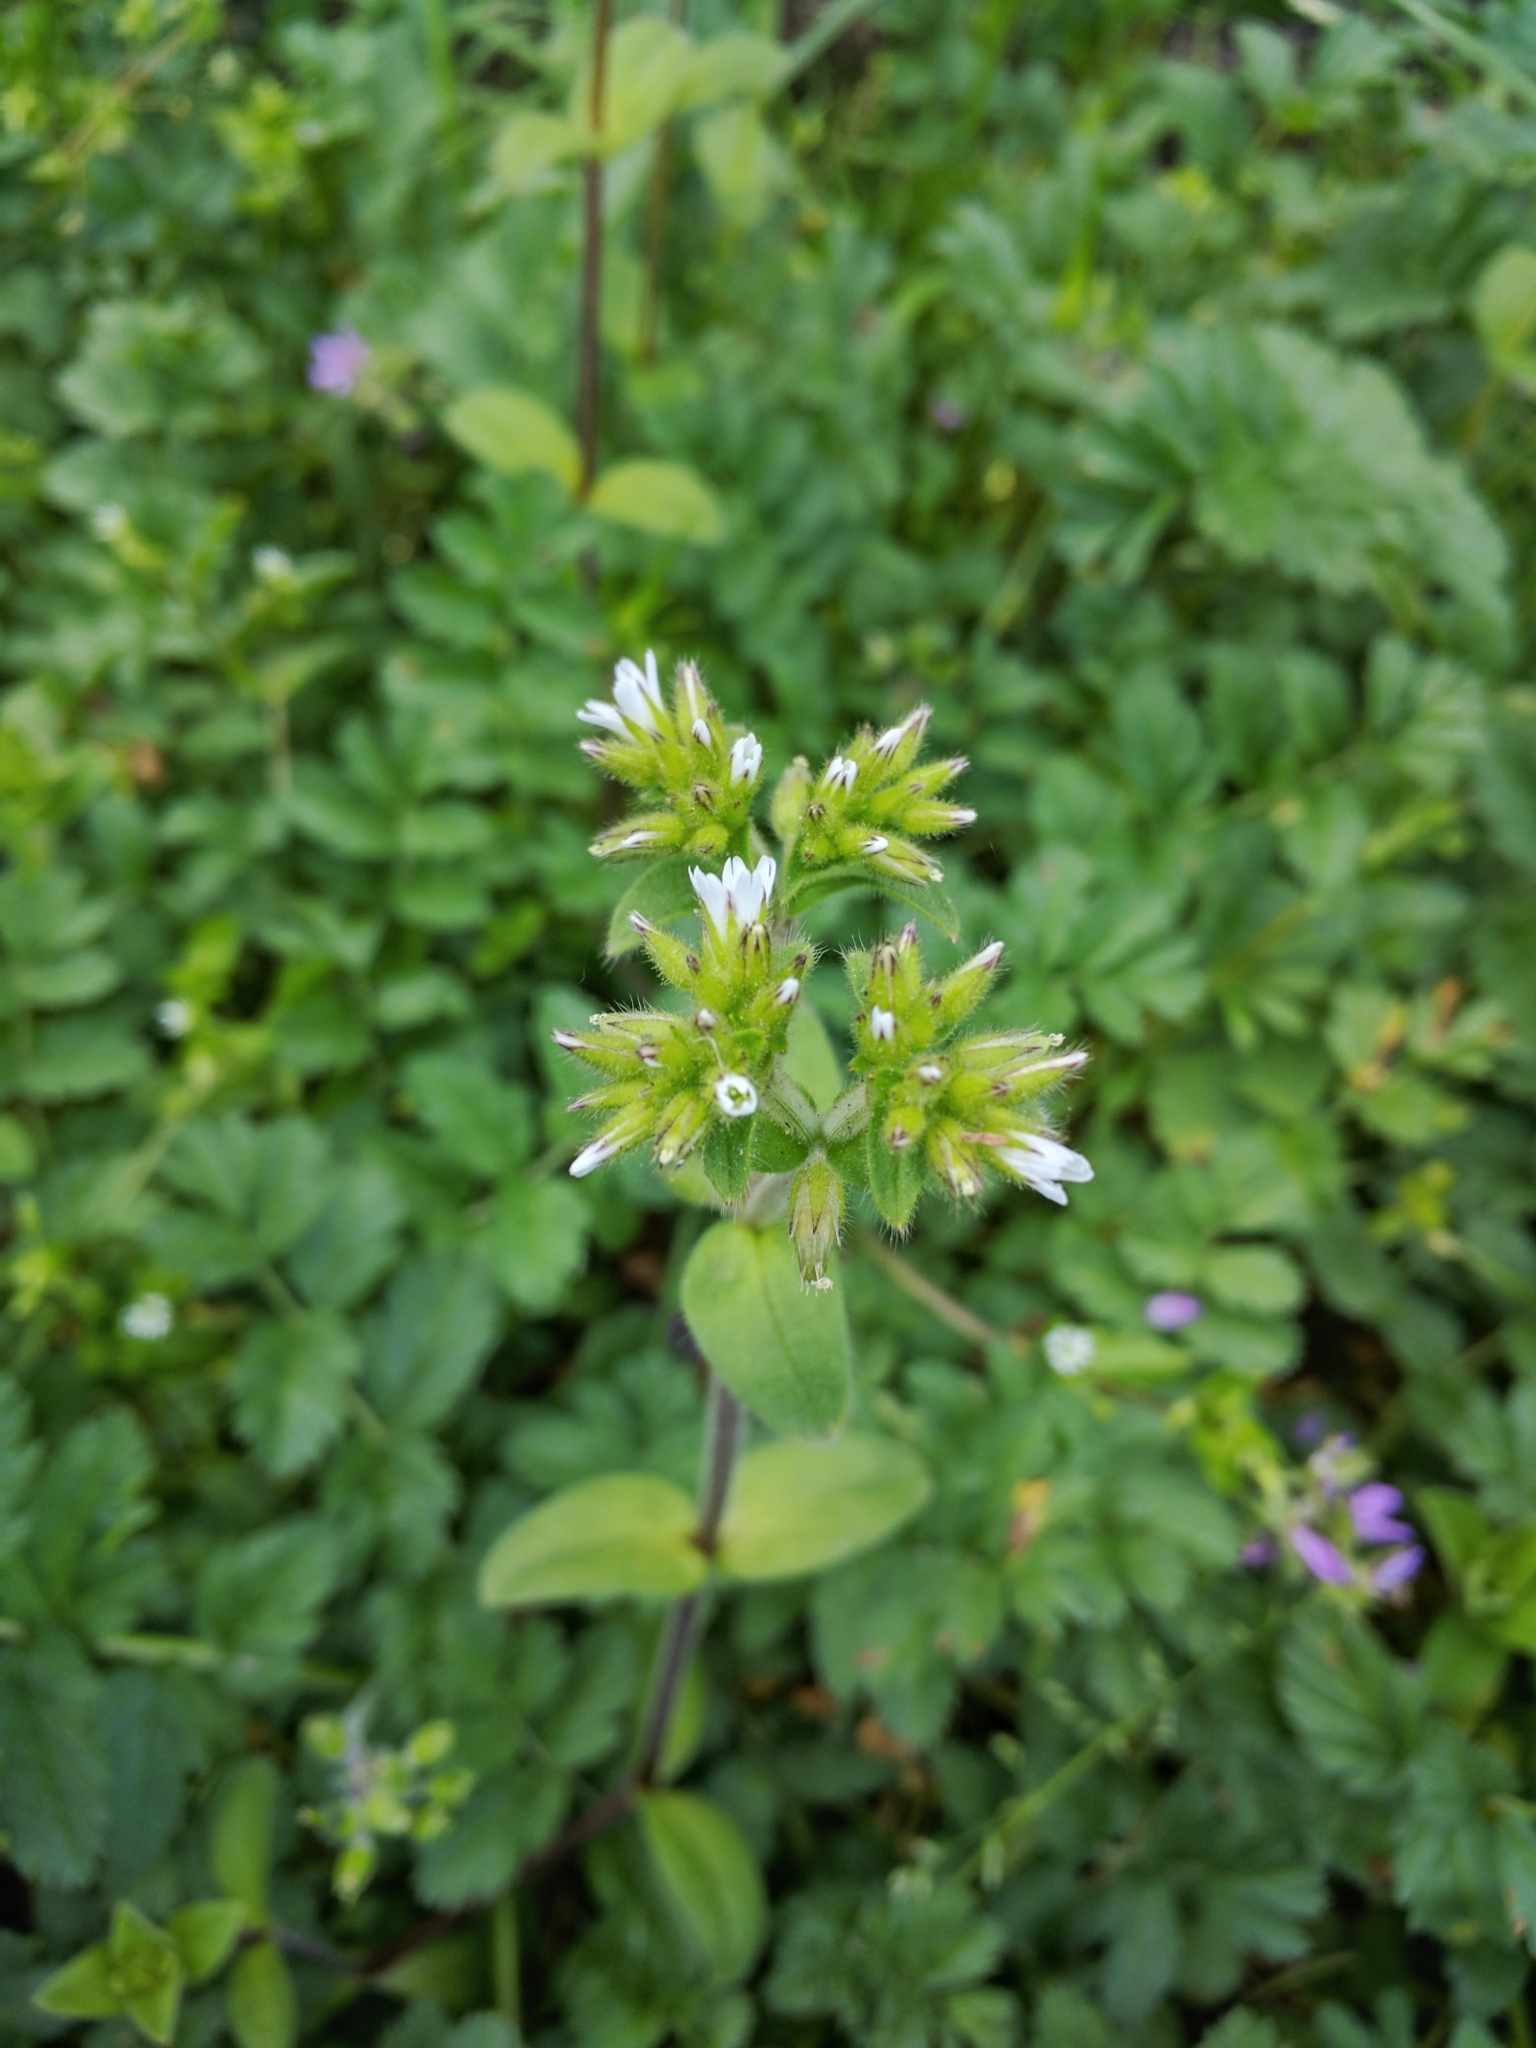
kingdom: Plantae
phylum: Tracheophyta
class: Magnoliopsida
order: Caryophyllales
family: Caryophyllaceae
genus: Cerastium
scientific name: Cerastium fontanum
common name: Common mouse-ear
